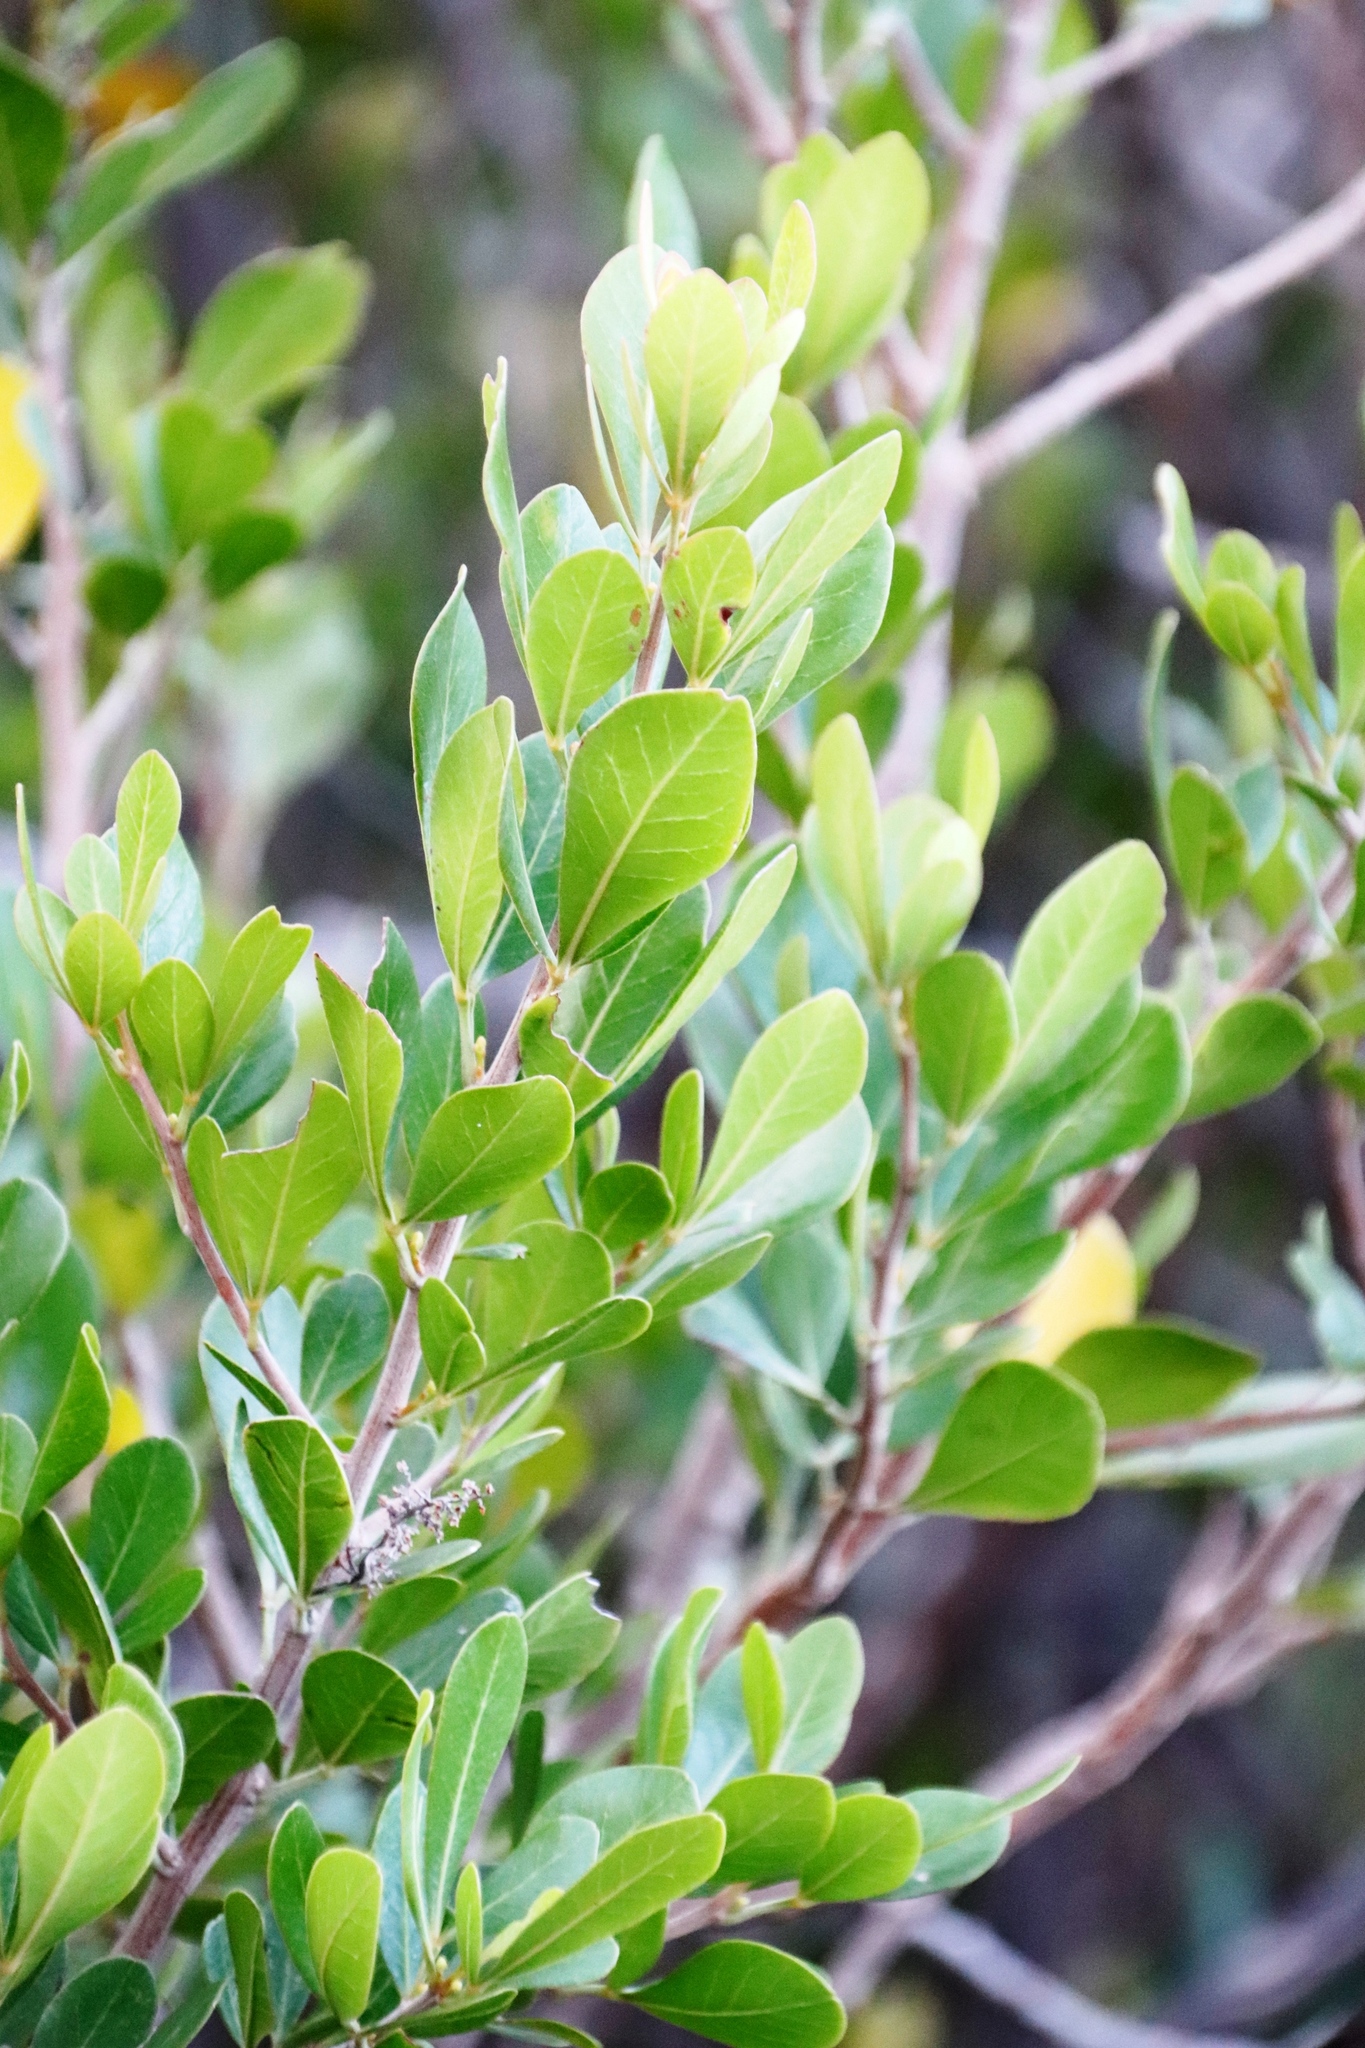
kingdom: Plantae
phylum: Tracheophyta
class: Magnoliopsida
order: Sapindales
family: Anacardiaceae
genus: Searsia
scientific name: Searsia lucida
